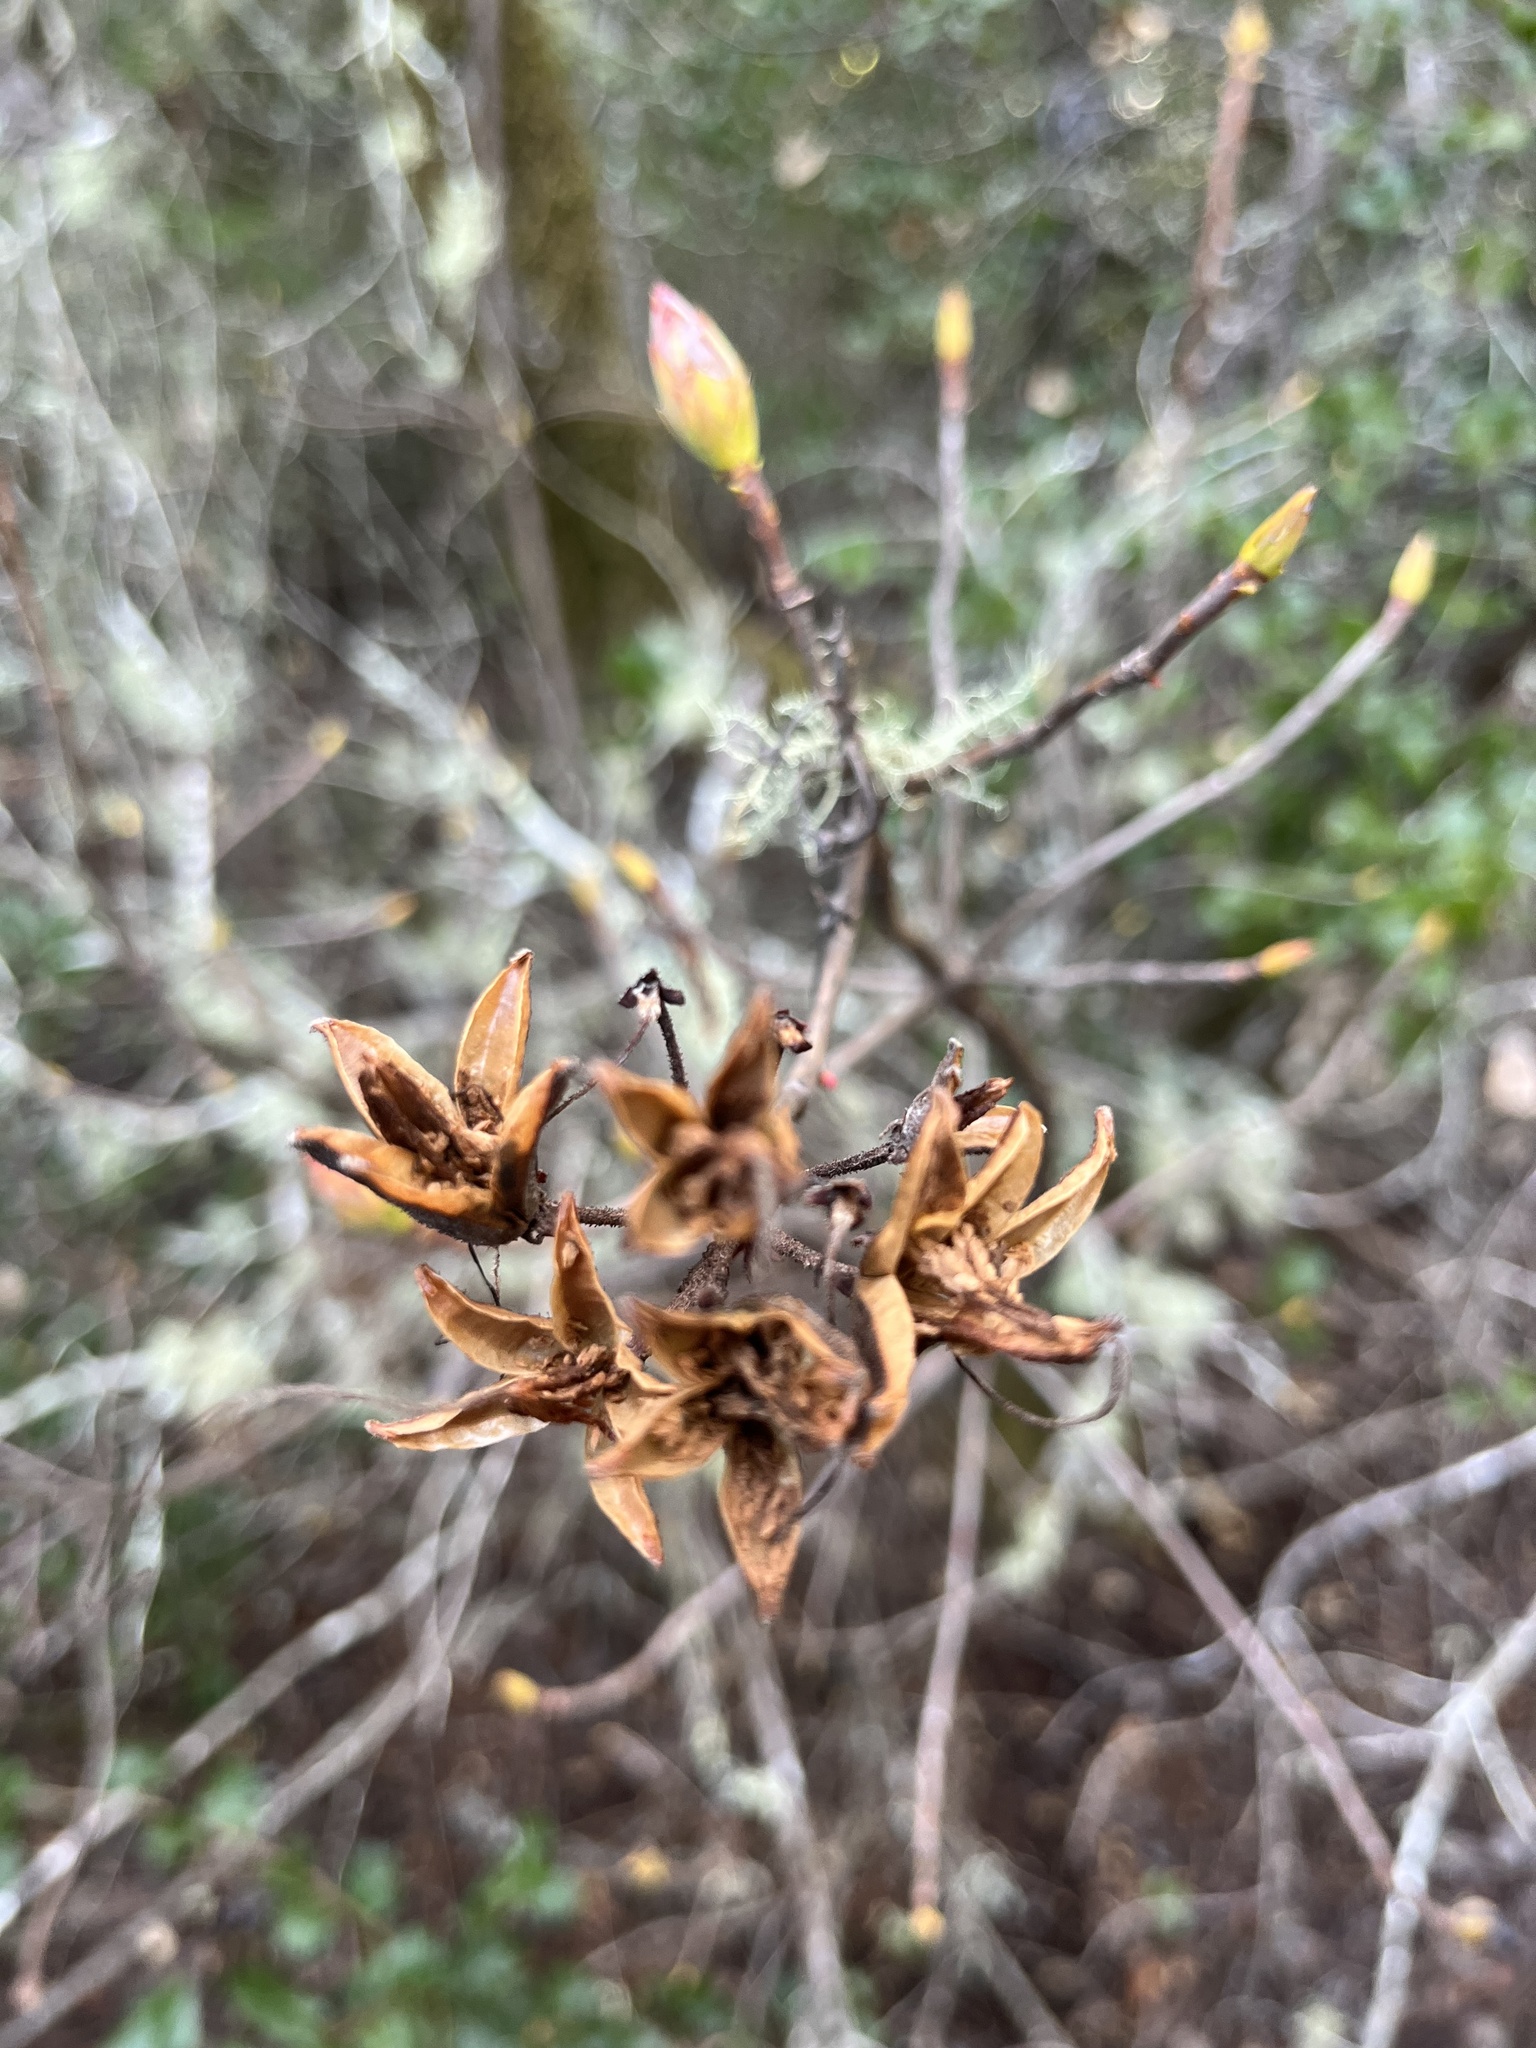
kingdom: Plantae
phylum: Tracheophyta
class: Magnoliopsida
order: Ericales
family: Ericaceae
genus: Rhododendron
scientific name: Rhododendron occidentale
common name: Western azalea
